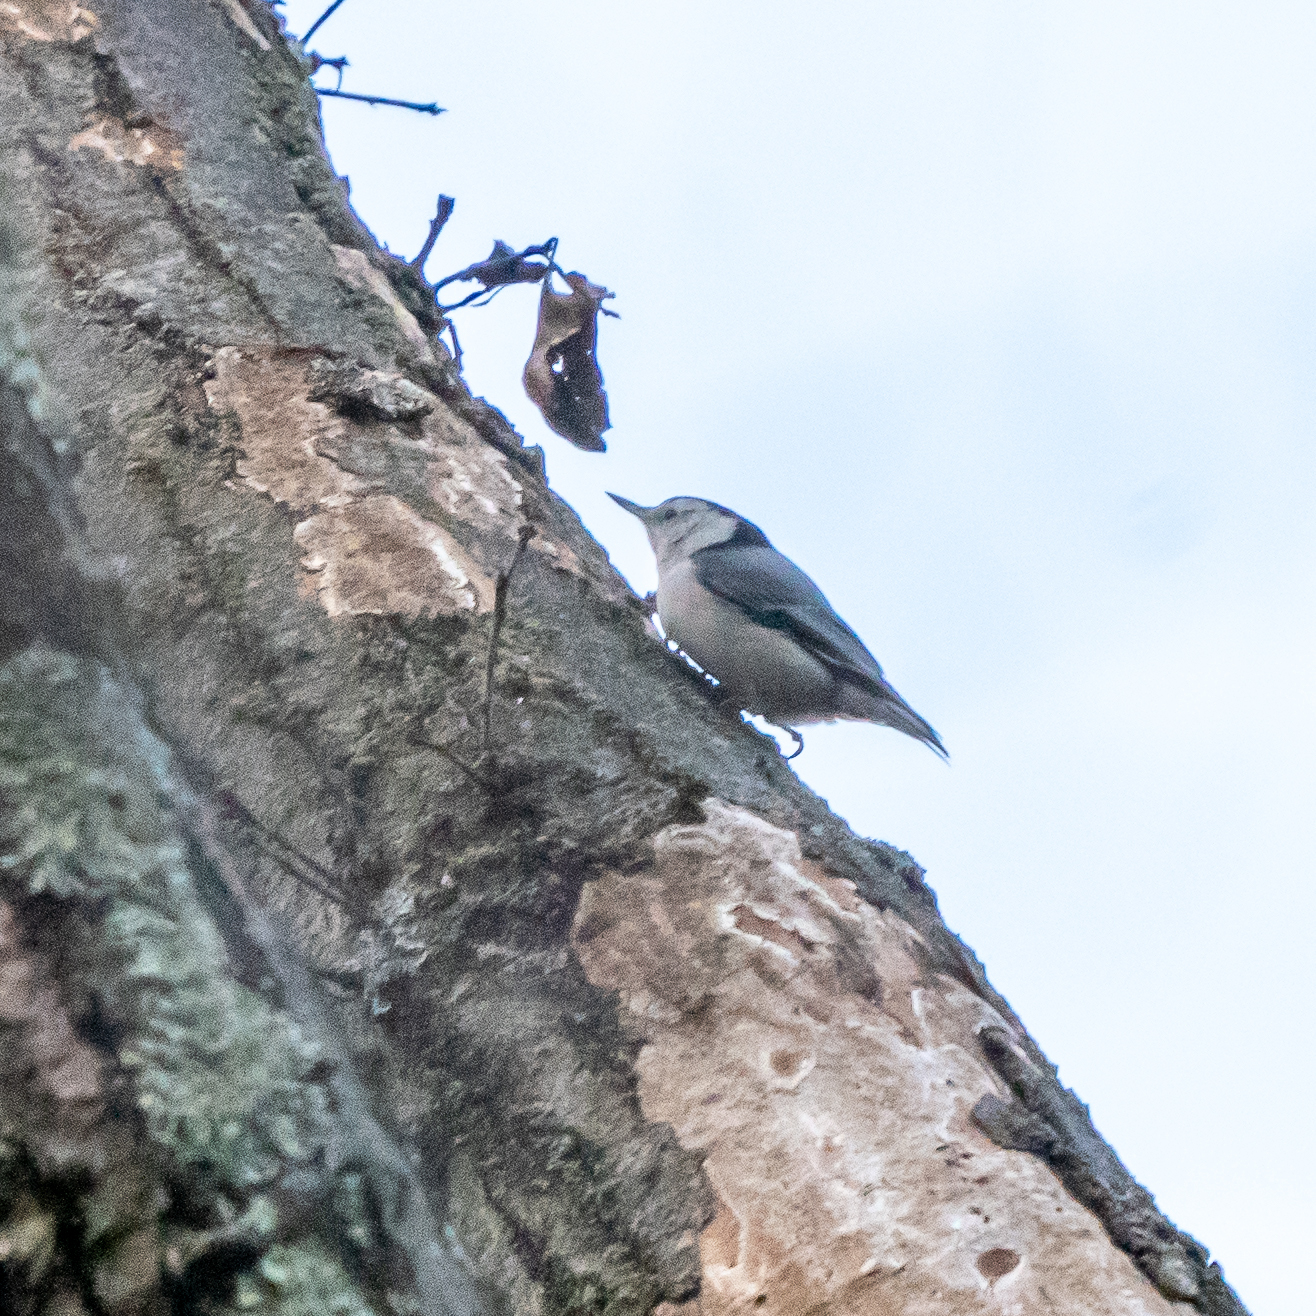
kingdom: Animalia
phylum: Chordata
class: Aves
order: Passeriformes
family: Sittidae
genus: Sitta
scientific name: Sitta carolinensis
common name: White-breasted nuthatch
